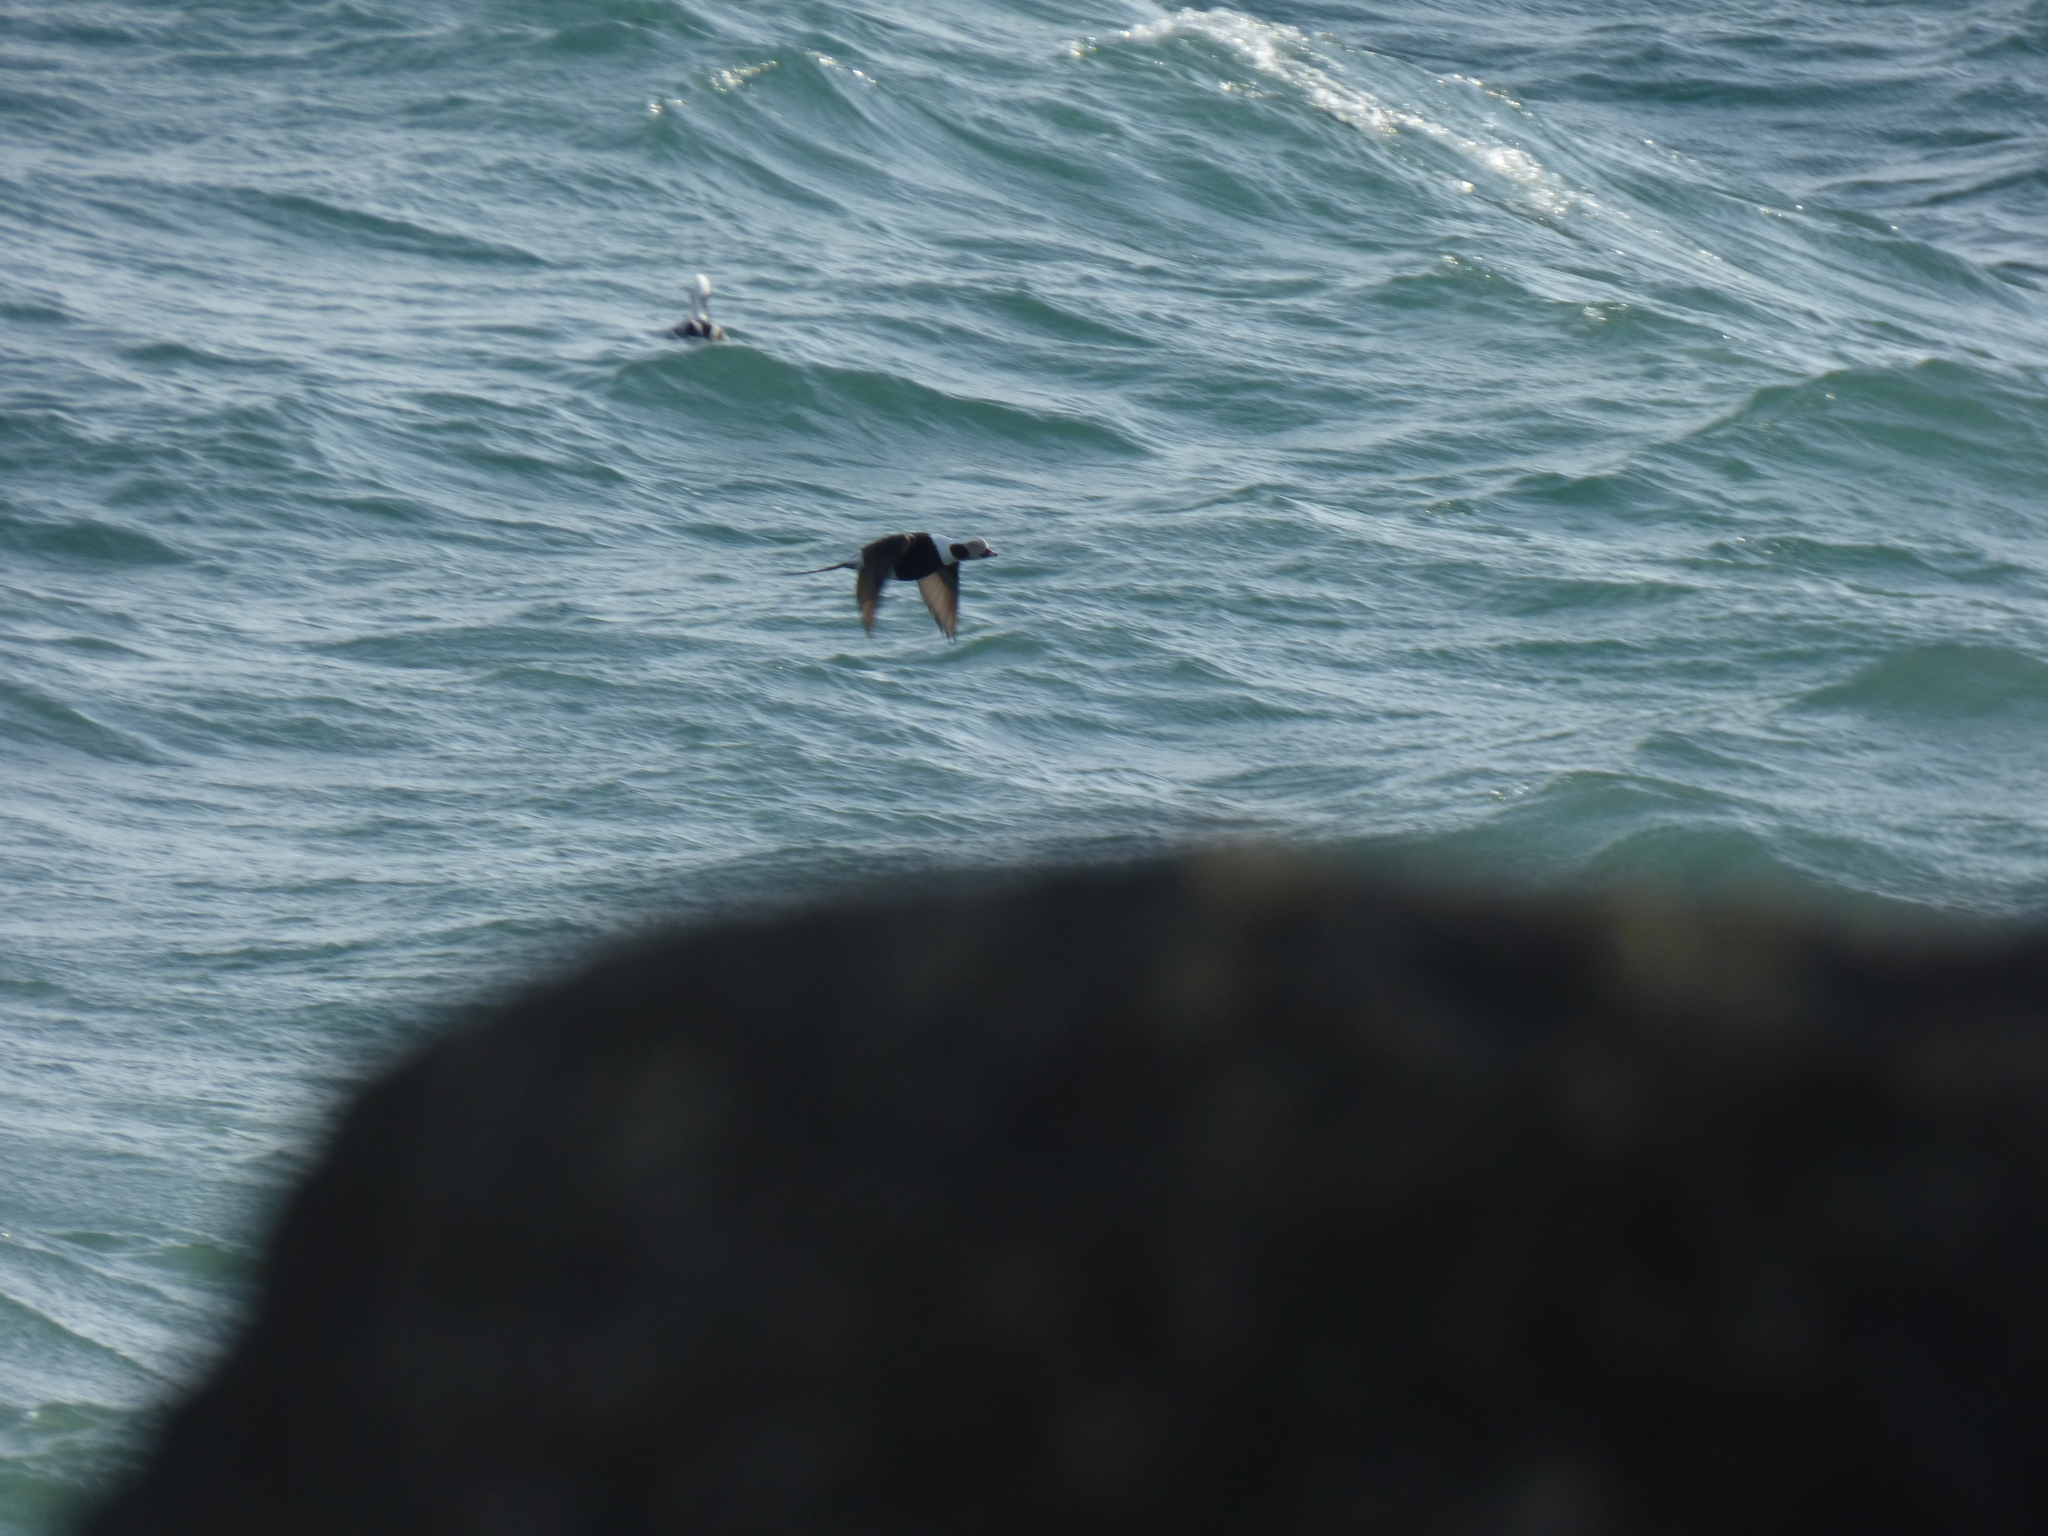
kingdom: Animalia
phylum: Chordata
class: Aves
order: Anseriformes
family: Anatidae
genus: Clangula
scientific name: Clangula hyemalis
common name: Long-tailed duck
